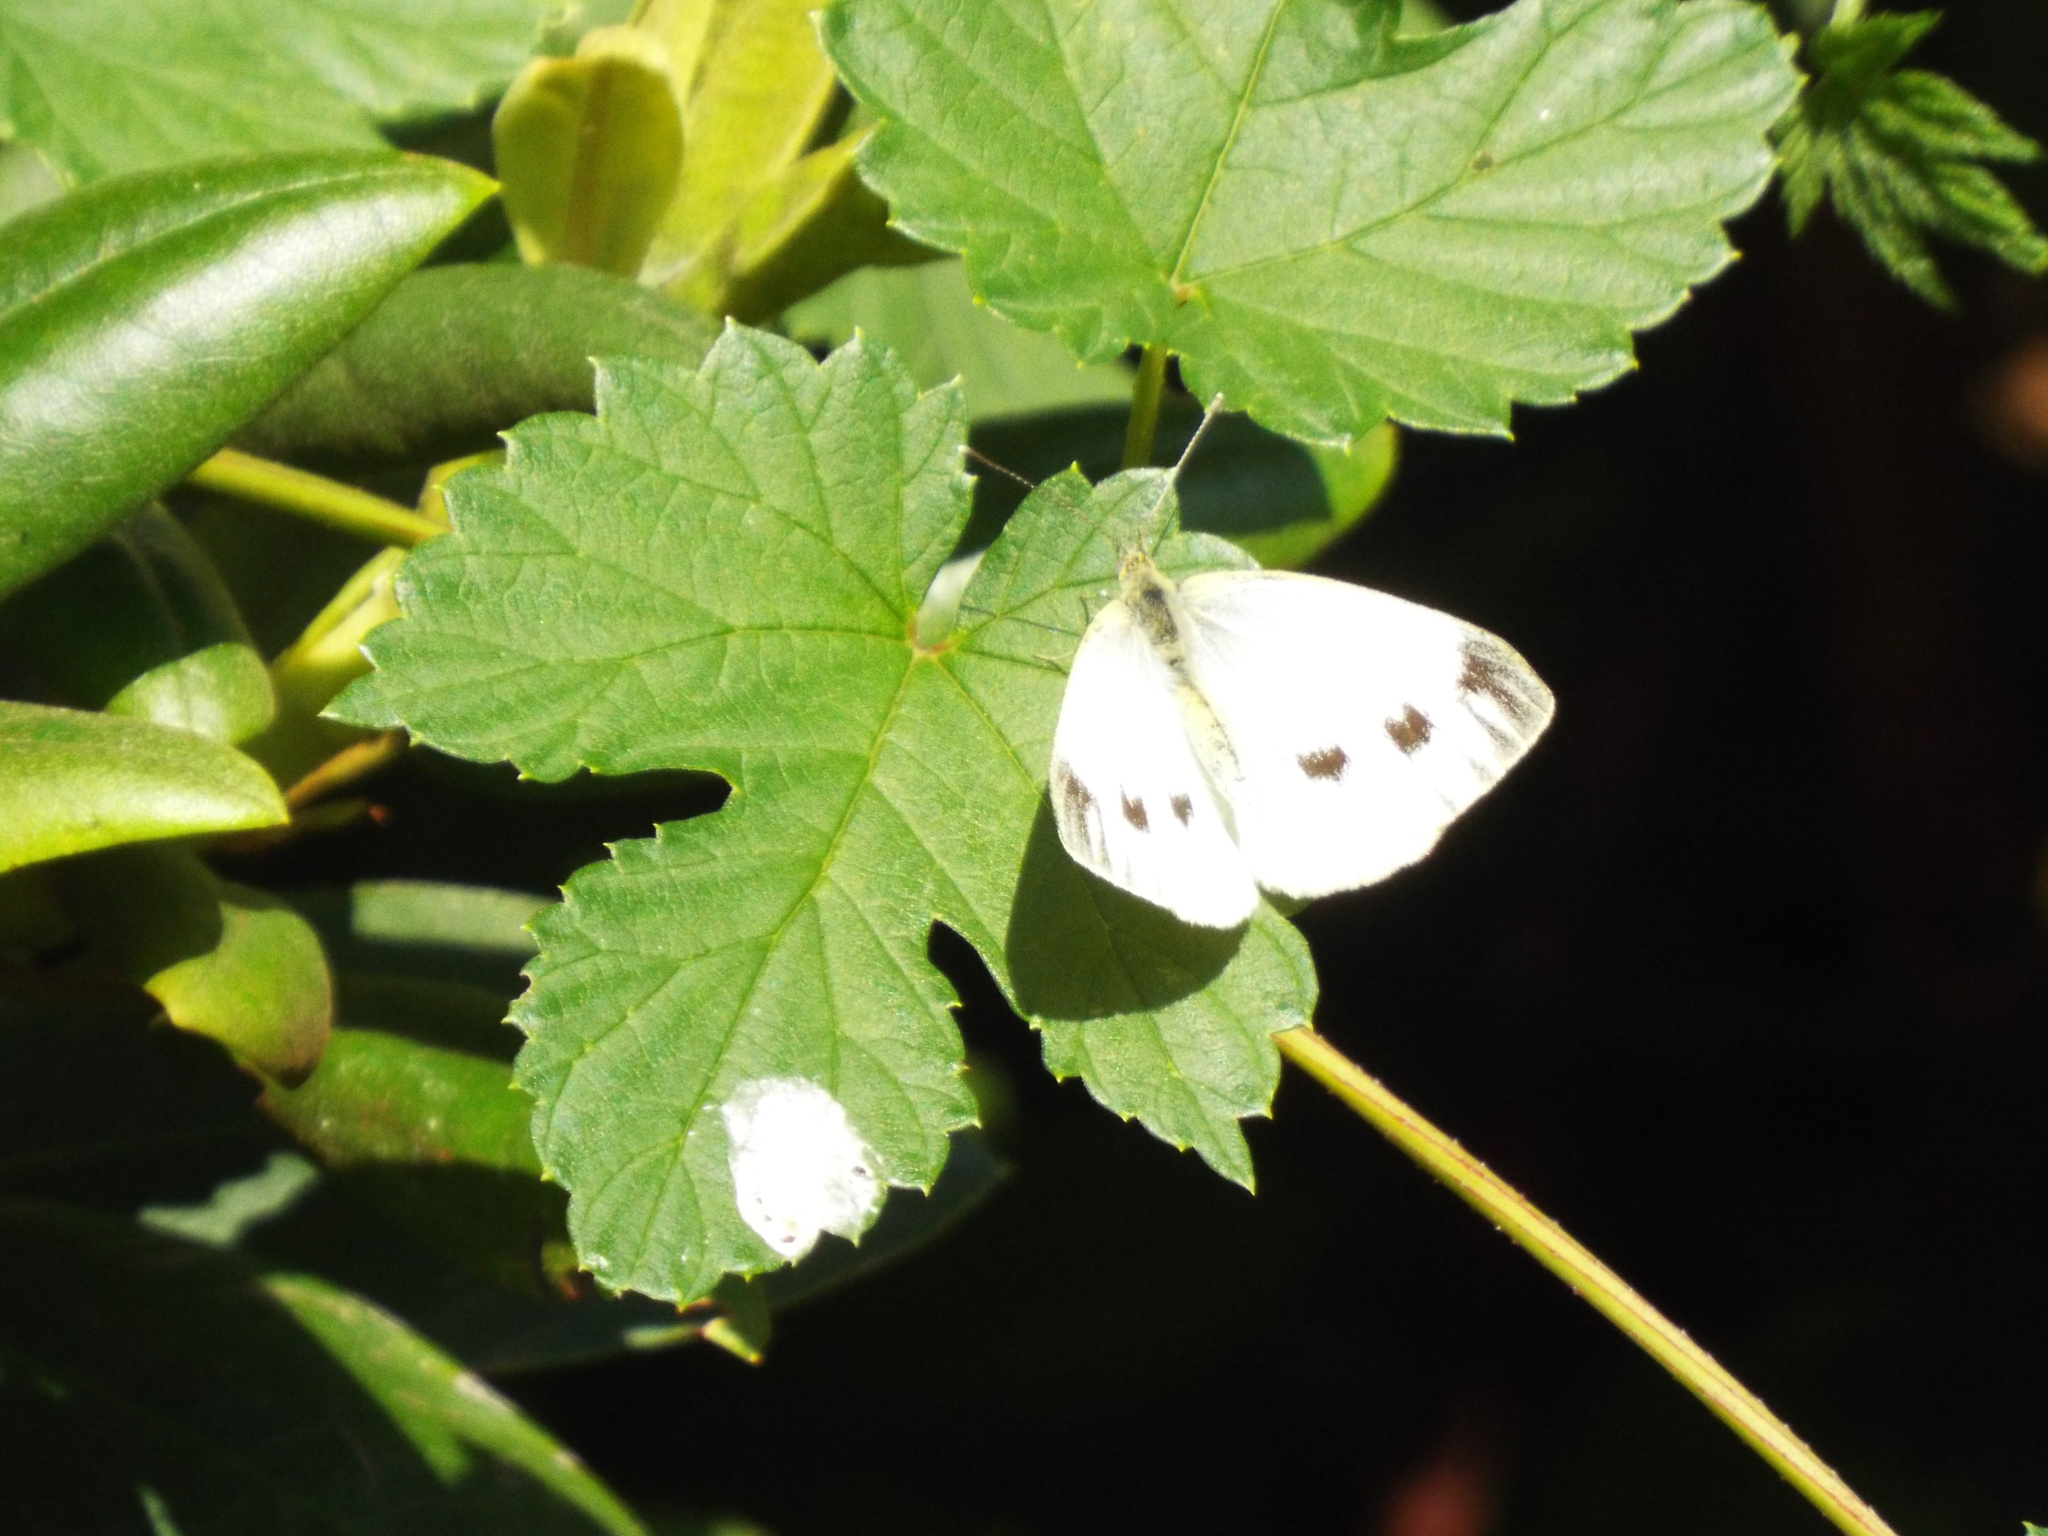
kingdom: Animalia
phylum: Arthropoda
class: Insecta
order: Lepidoptera
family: Pieridae
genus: Pieris
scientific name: Pieris napi
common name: Green-veined white
